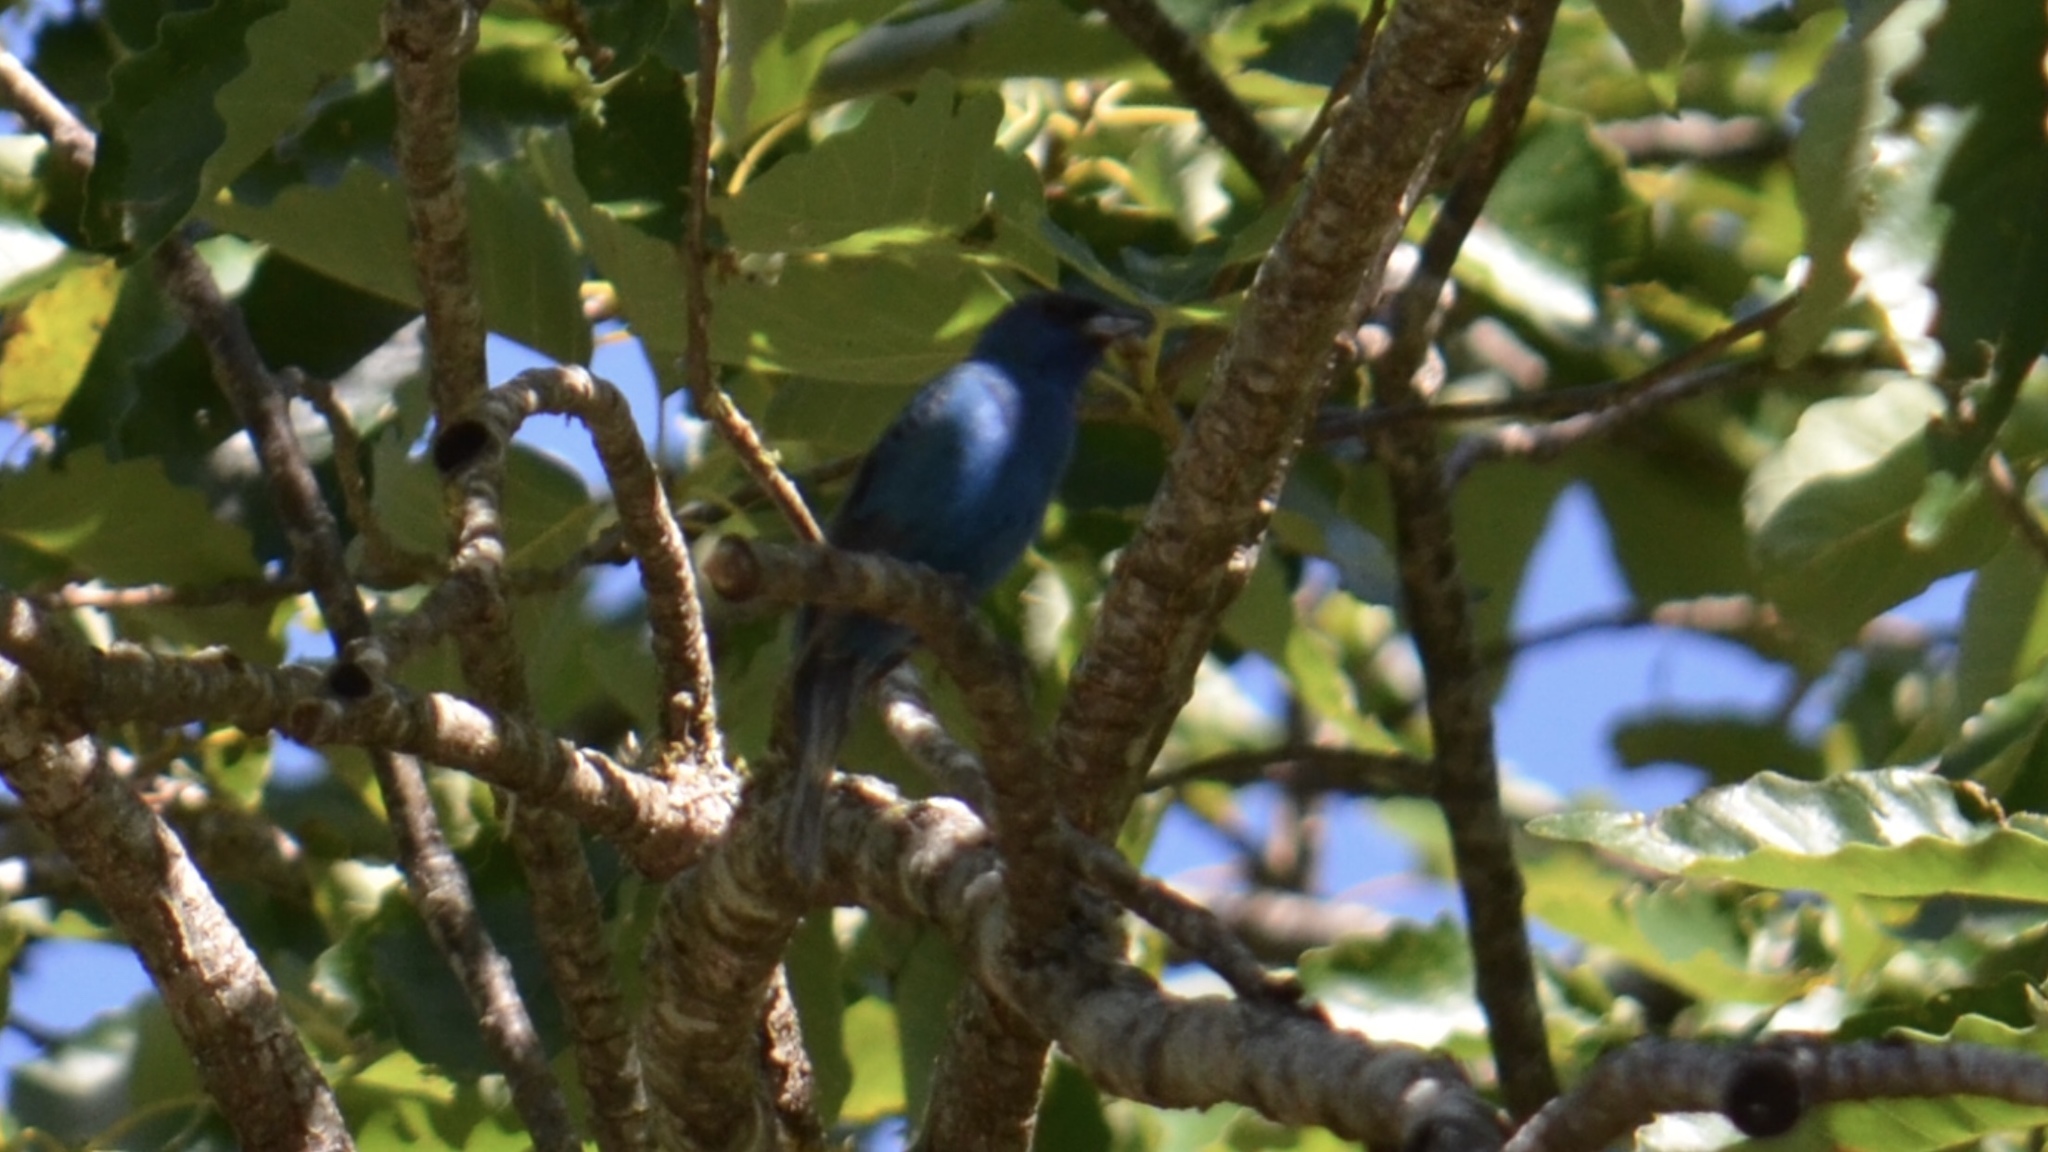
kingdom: Animalia
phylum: Chordata
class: Aves
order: Passeriformes
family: Cardinalidae
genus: Passerina
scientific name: Passerina cyanea
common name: Indigo bunting
